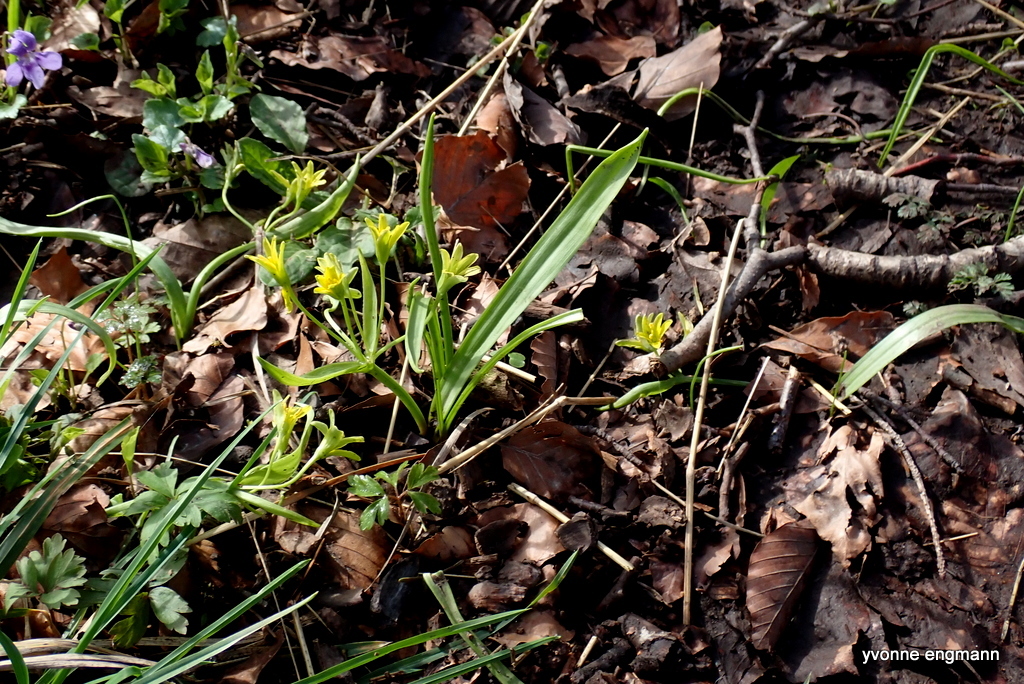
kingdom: Plantae
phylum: Tracheophyta
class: Liliopsida
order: Liliales
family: Liliaceae
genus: Gagea
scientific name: Gagea lutea
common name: Yellow star-of-bethlehem
